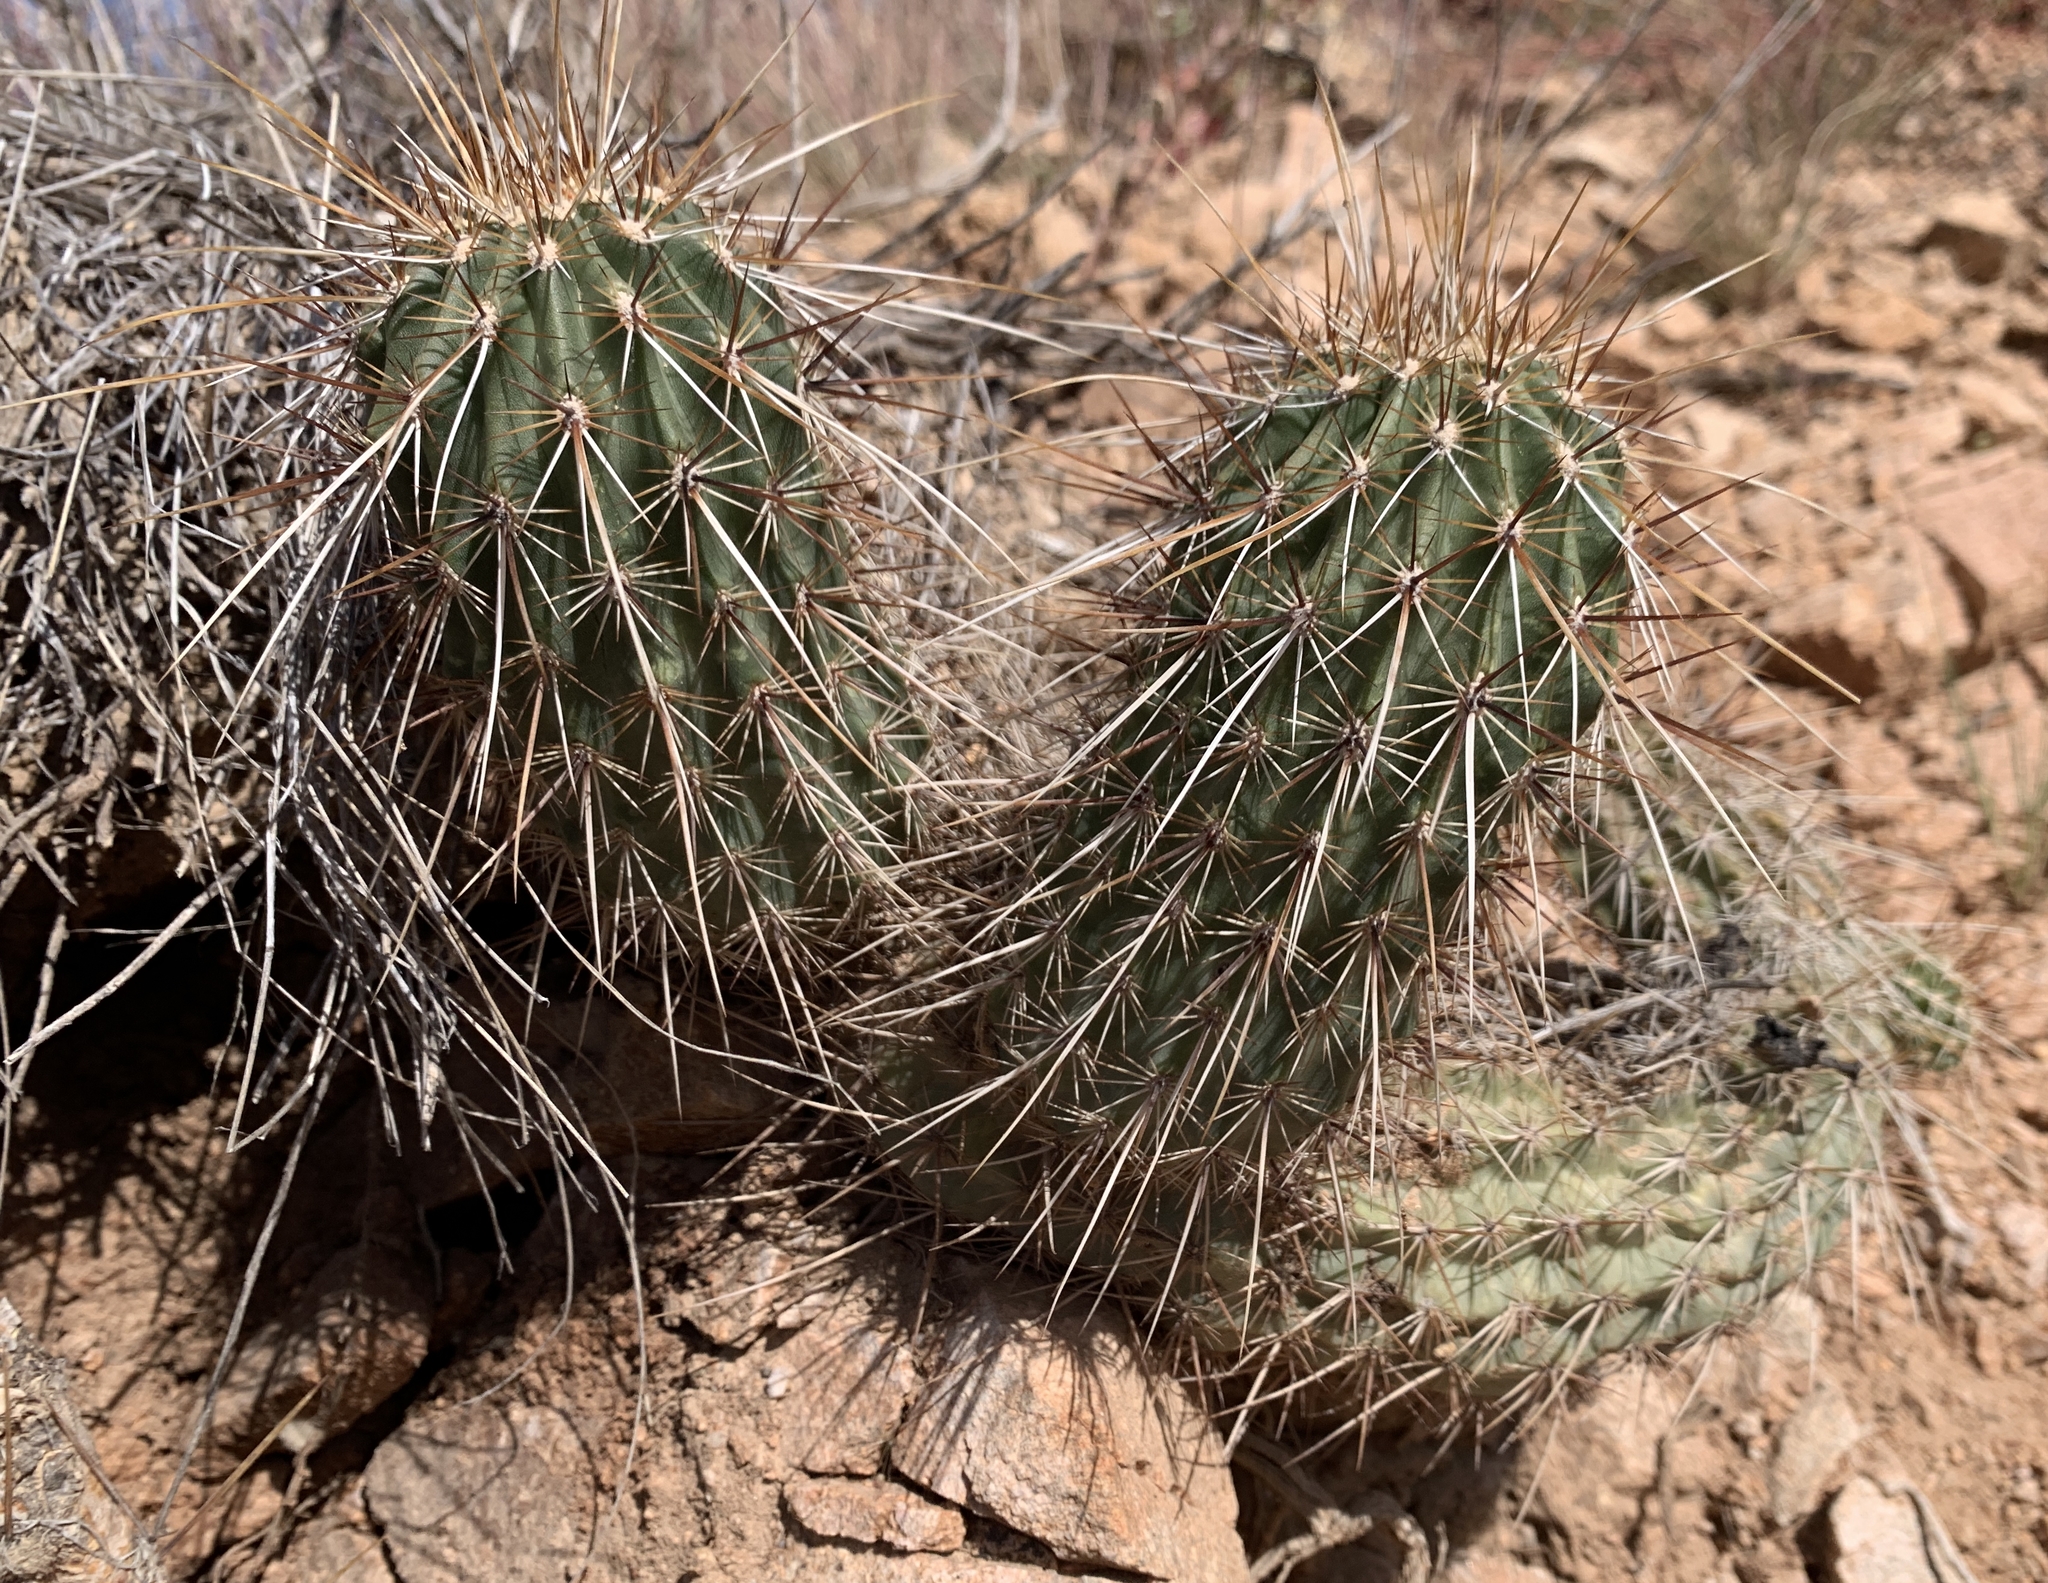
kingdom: Plantae
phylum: Tracheophyta
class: Magnoliopsida
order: Caryophyllales
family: Cactaceae
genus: Echinocereus
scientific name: Echinocereus fasciculatus
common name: Bundle hedgehog
